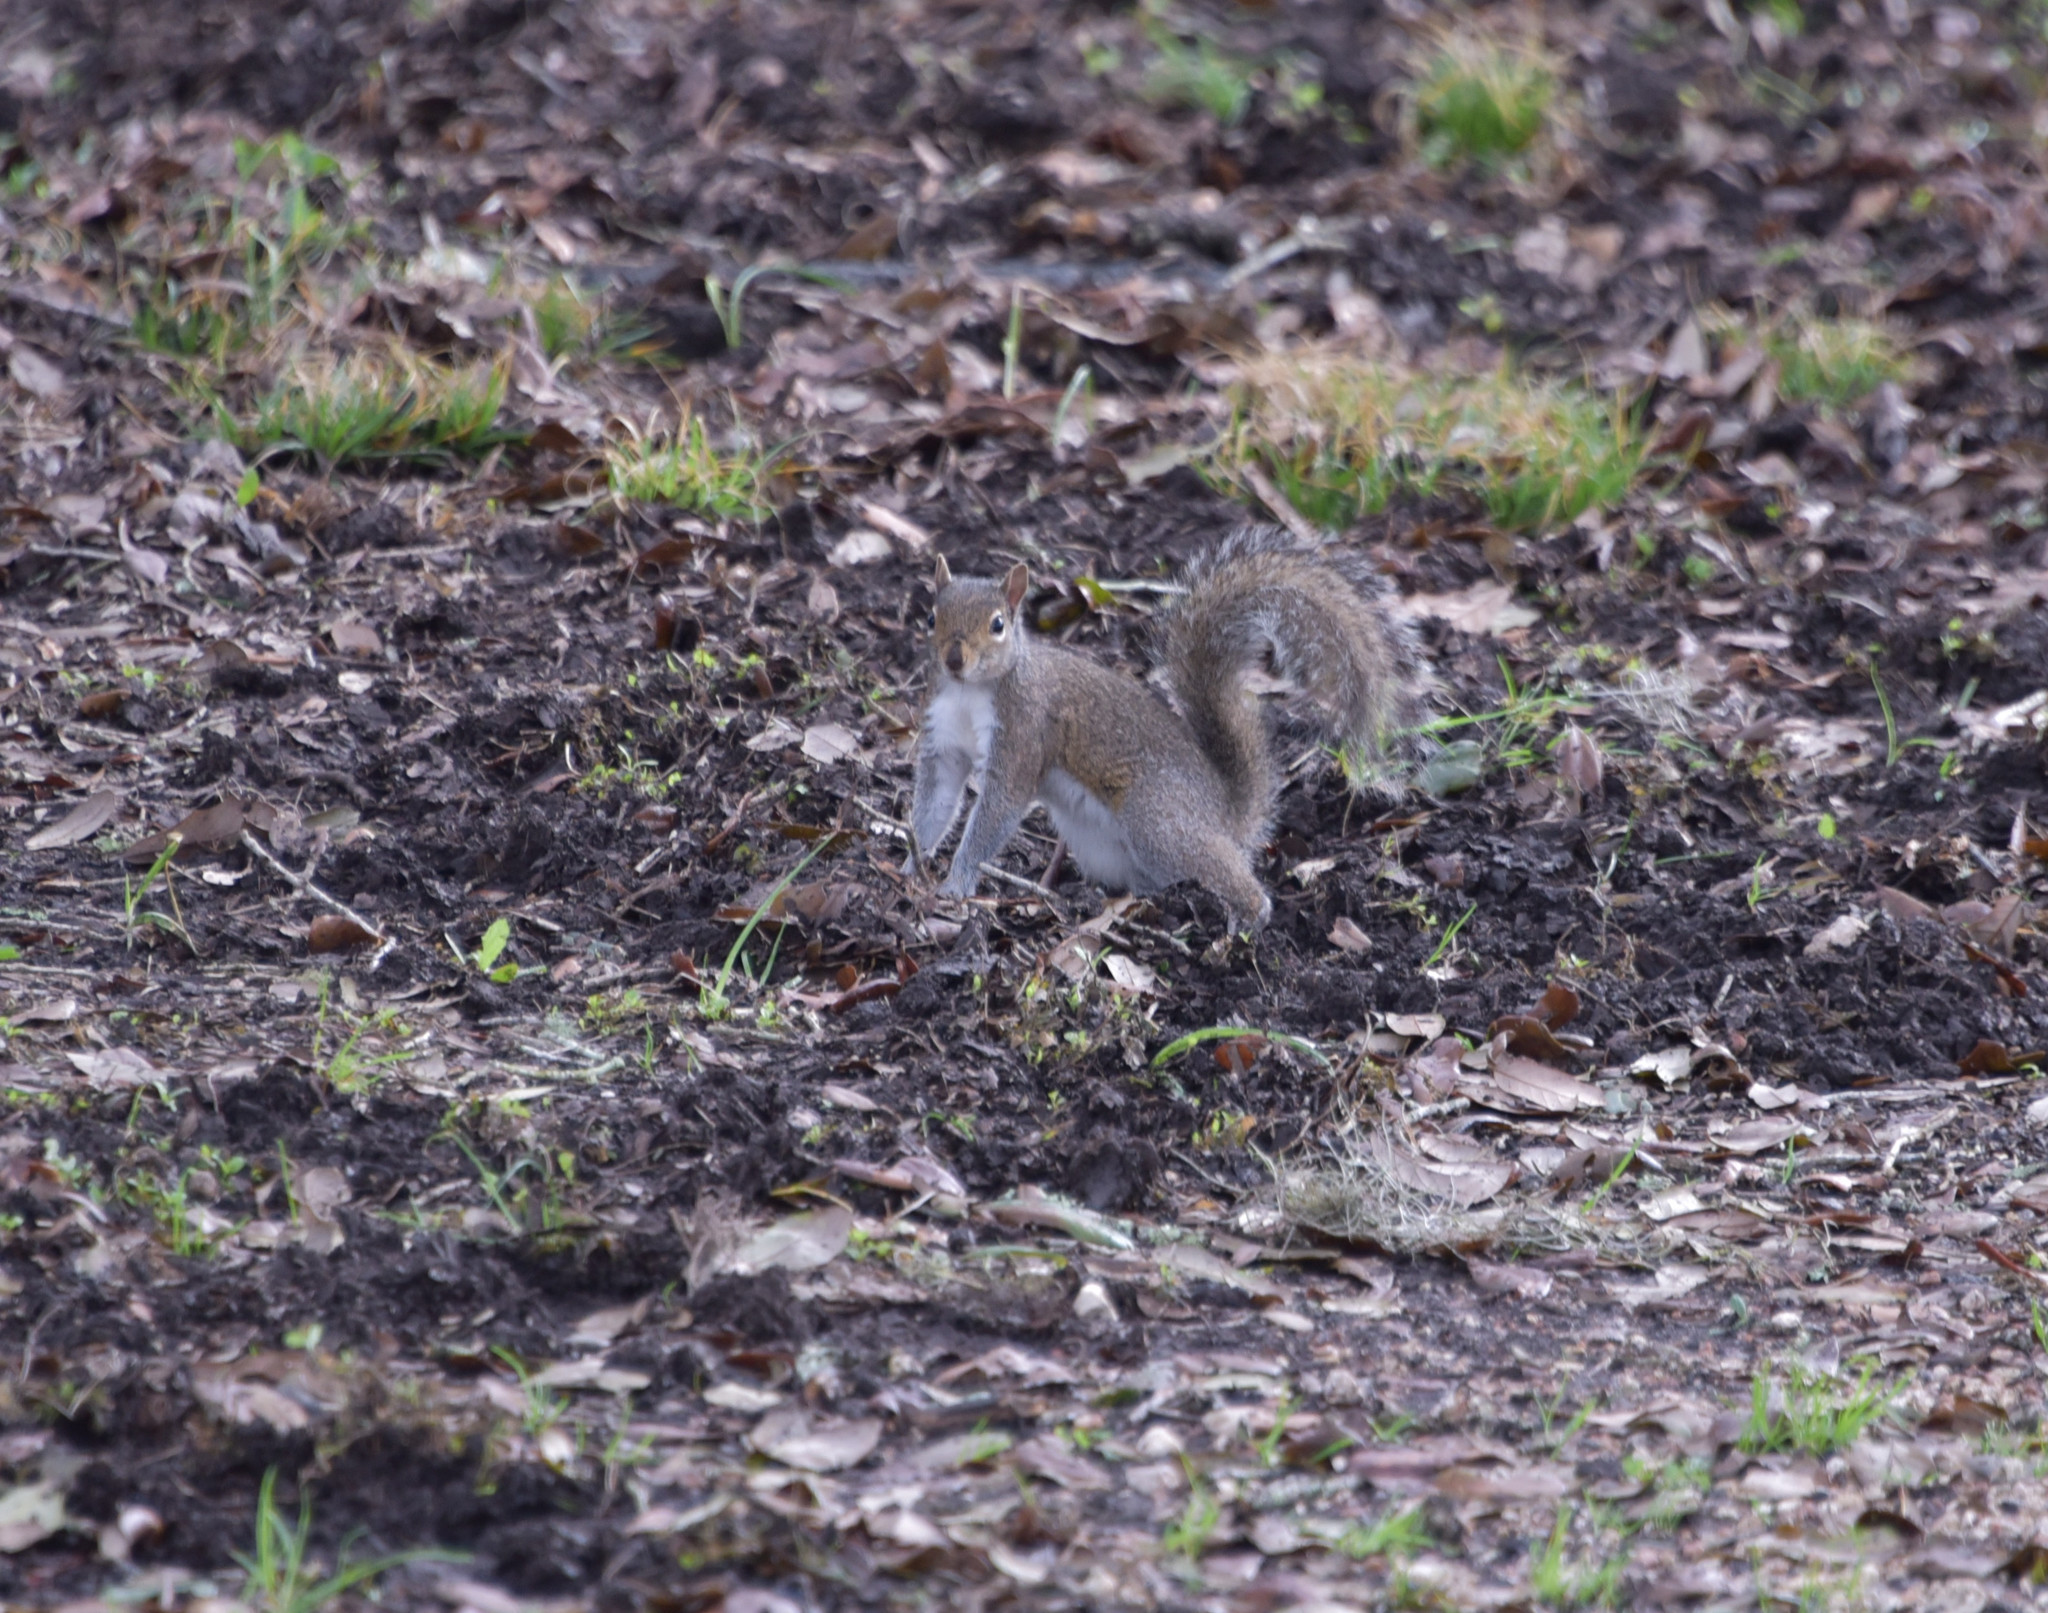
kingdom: Animalia
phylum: Chordata
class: Mammalia
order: Rodentia
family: Sciuridae
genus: Sciurus
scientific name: Sciurus carolinensis
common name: Eastern gray squirrel
